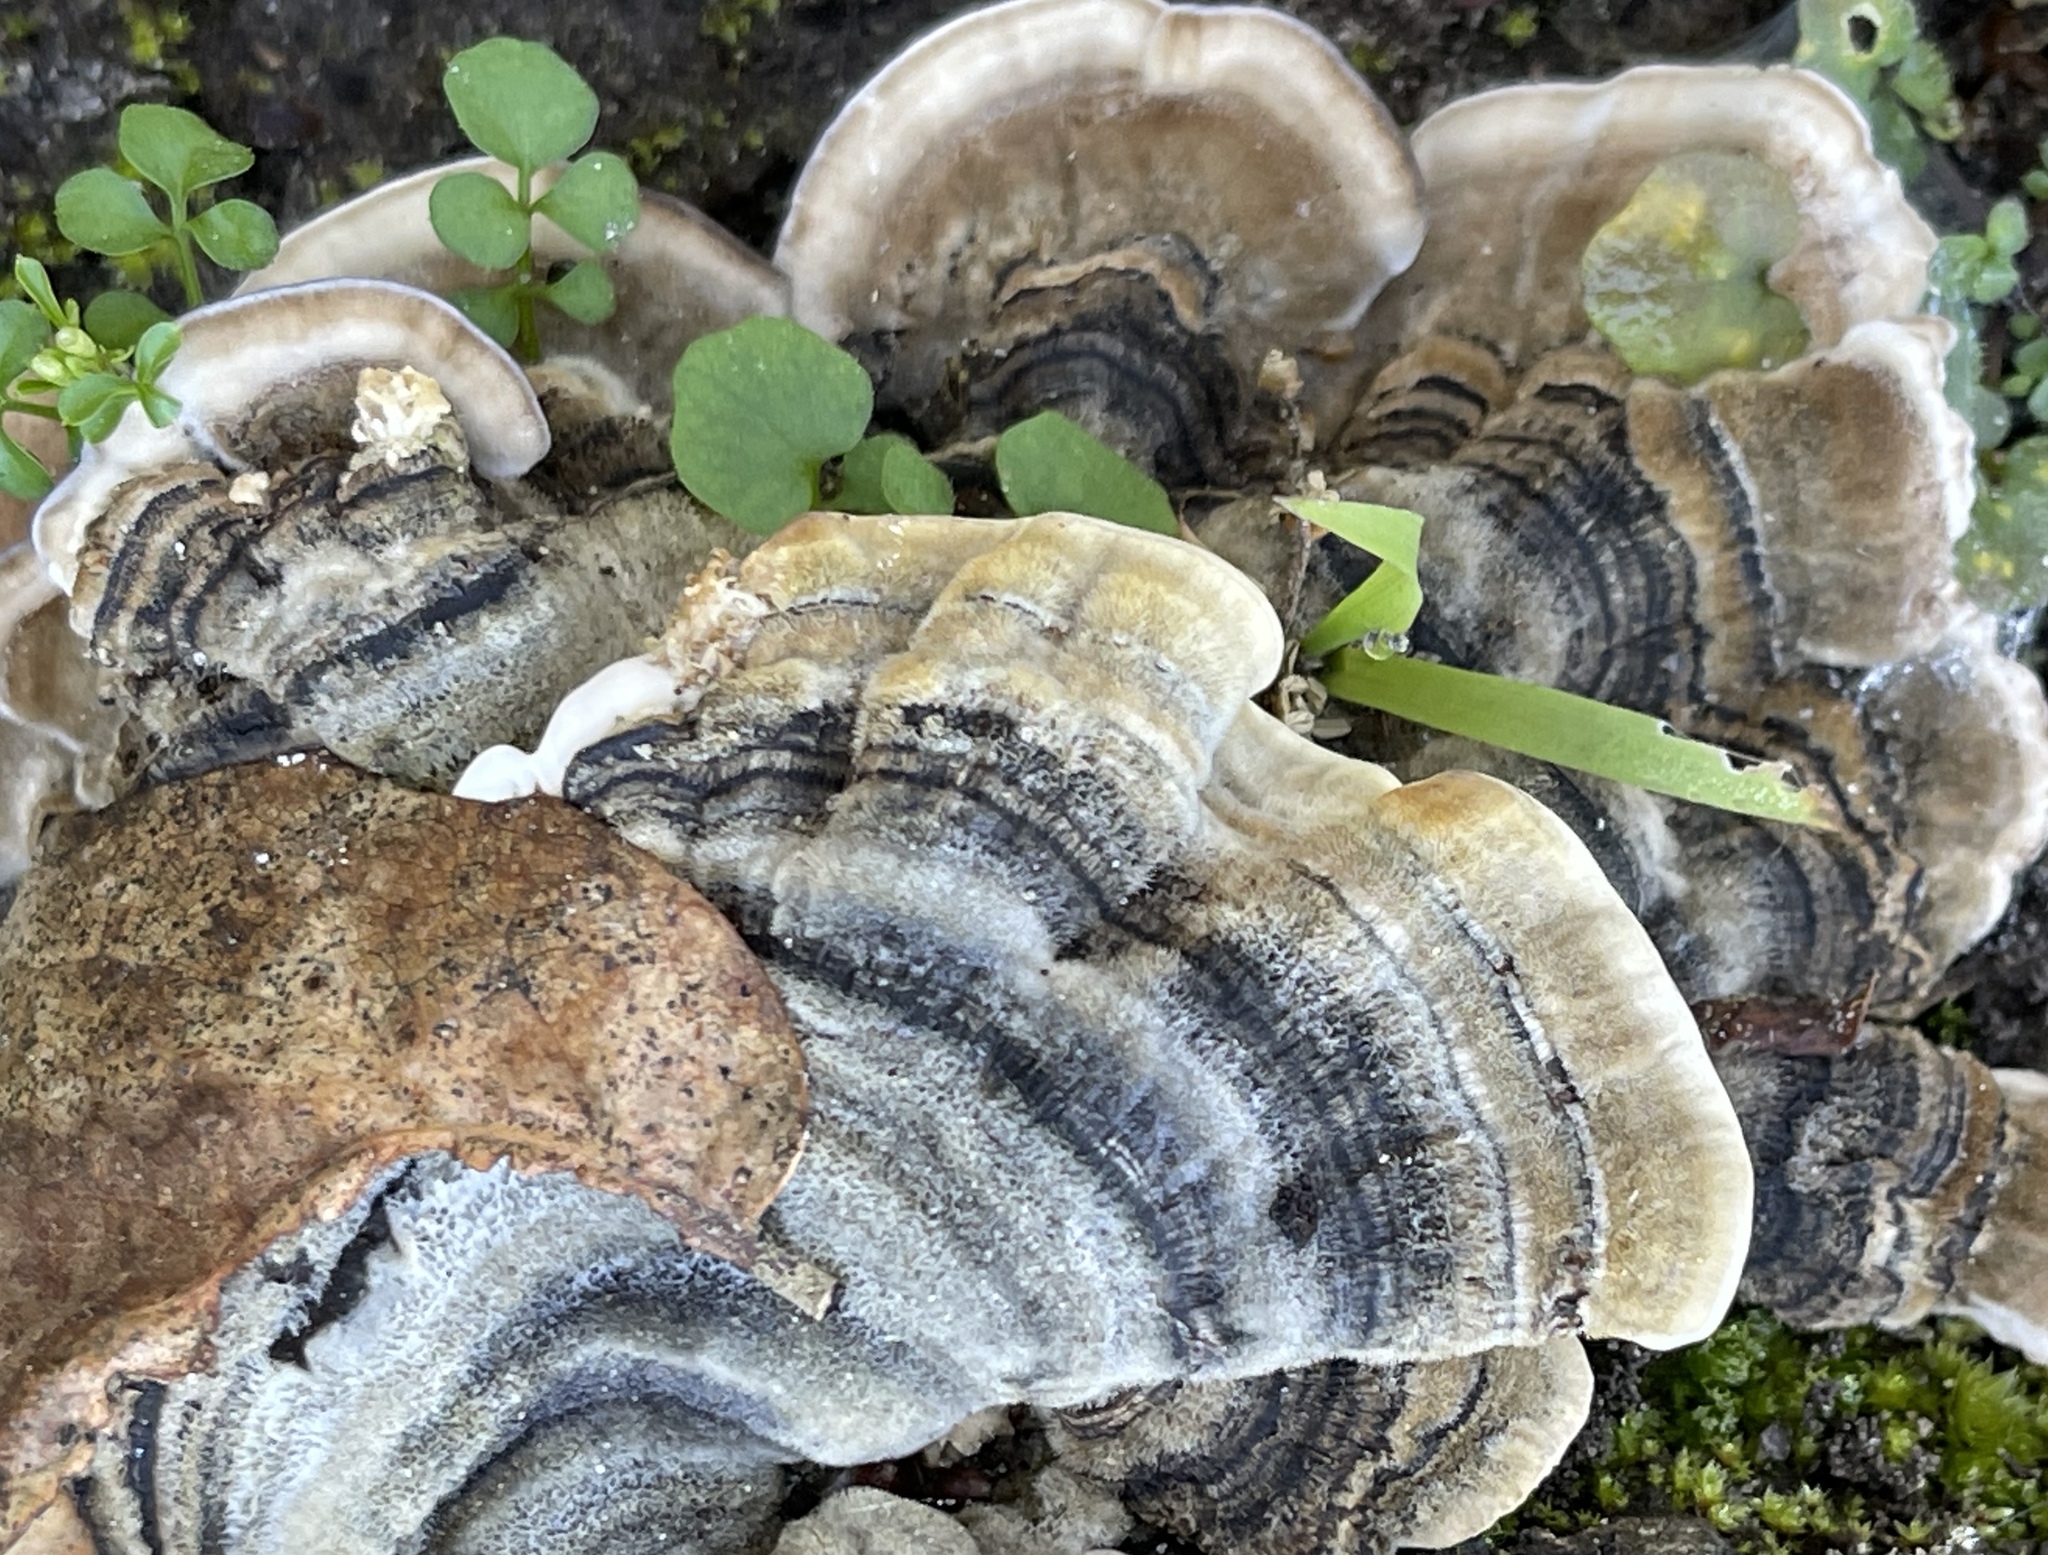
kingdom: Fungi
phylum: Basidiomycota
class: Agaricomycetes
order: Polyporales
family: Polyporaceae
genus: Trametes
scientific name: Trametes versicolor
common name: Turkeytail
